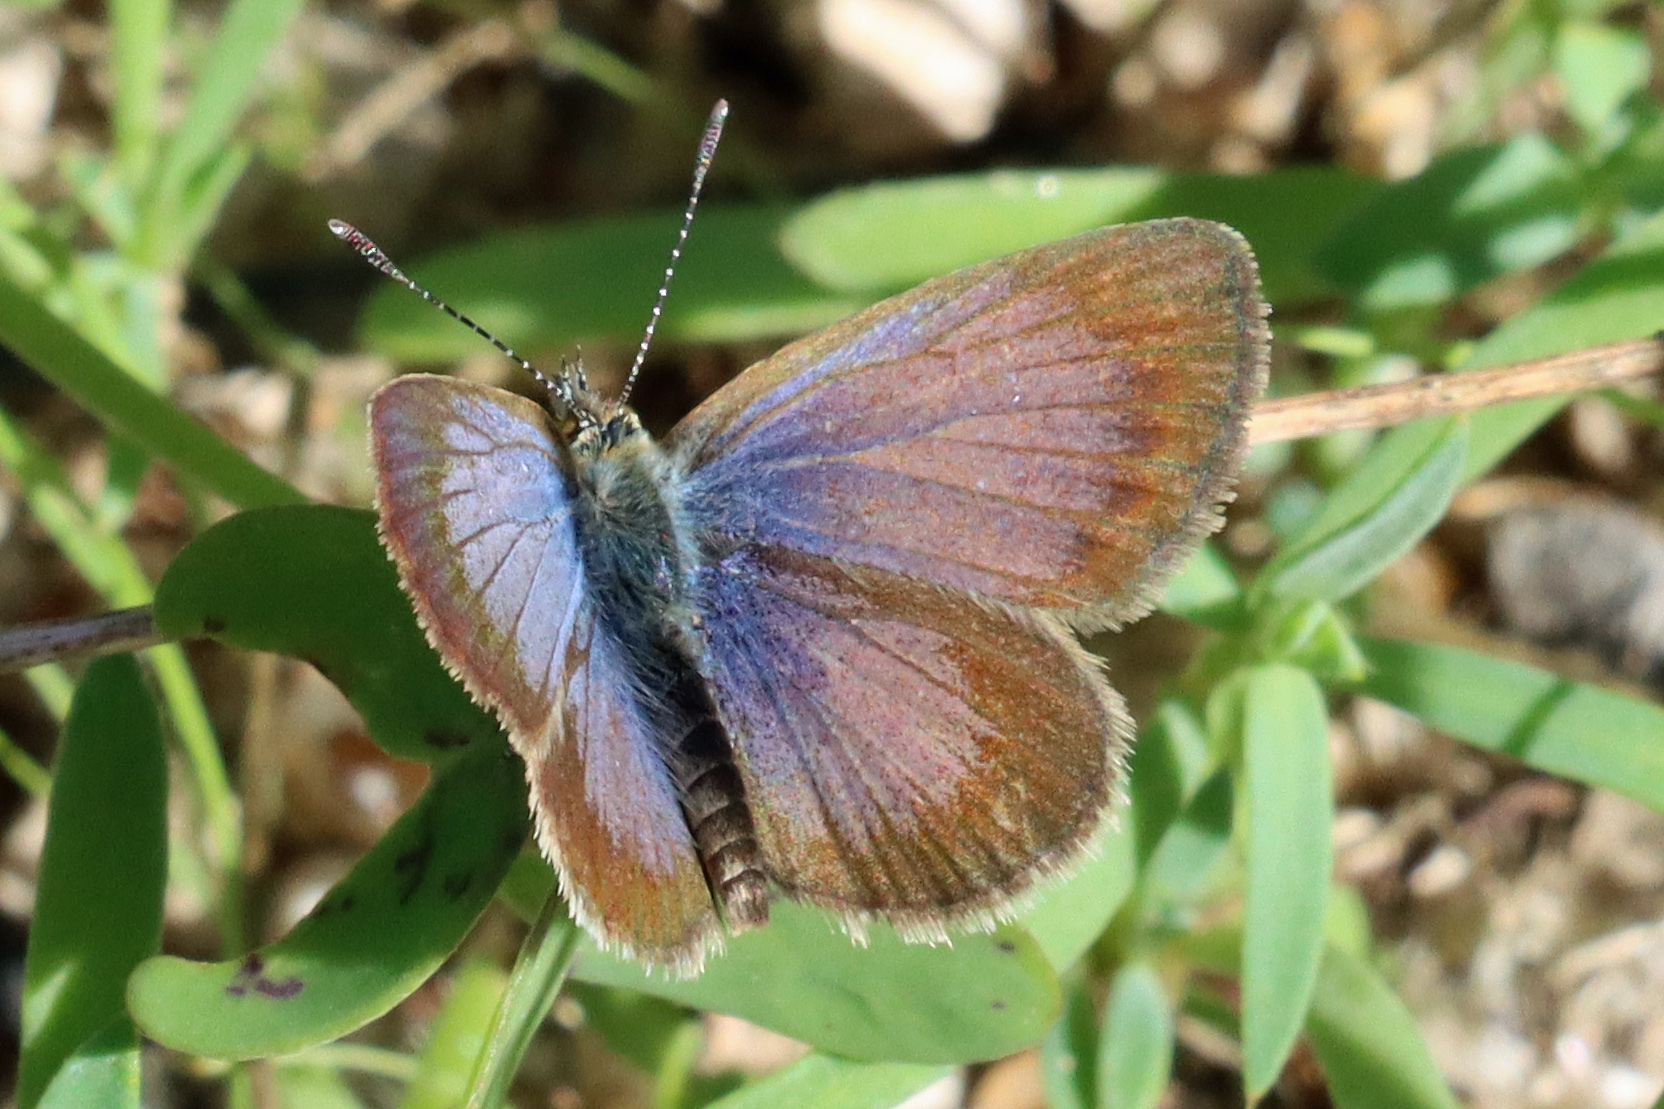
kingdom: Animalia
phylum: Arthropoda
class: Insecta
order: Lepidoptera
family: Lycaenidae
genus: Zizeeria
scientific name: Zizeeria knysna
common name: African grass blue
